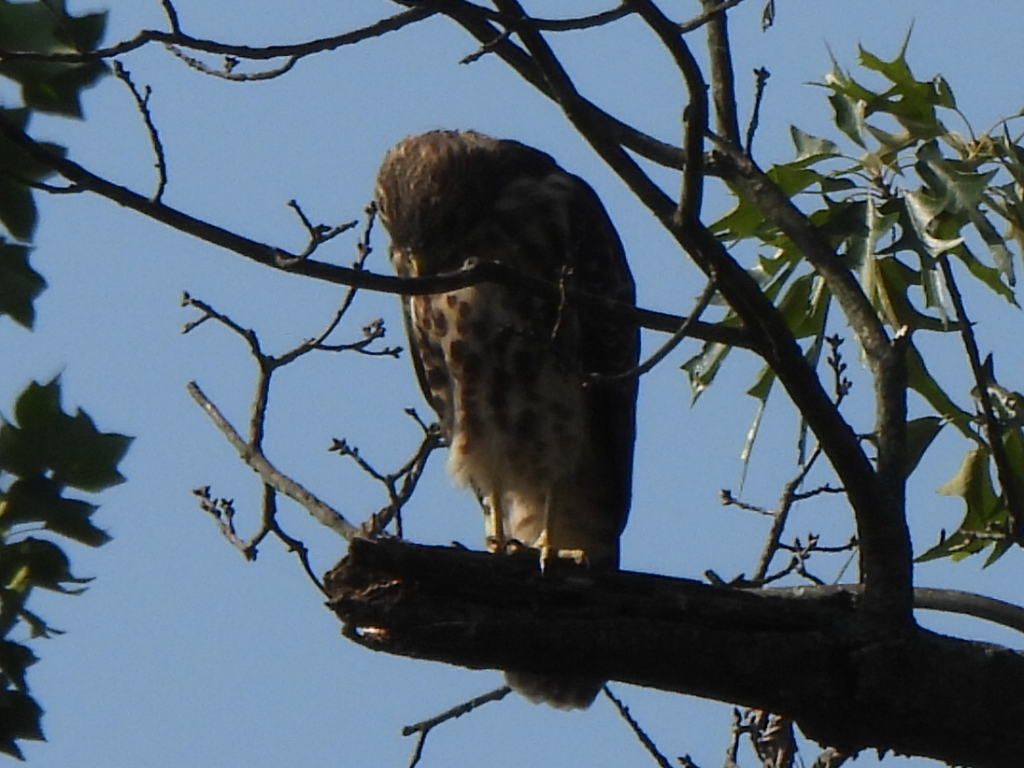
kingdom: Animalia
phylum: Chordata
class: Aves
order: Accipitriformes
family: Accipitridae
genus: Buteo
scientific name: Buteo lineatus
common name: Red-shouldered hawk
